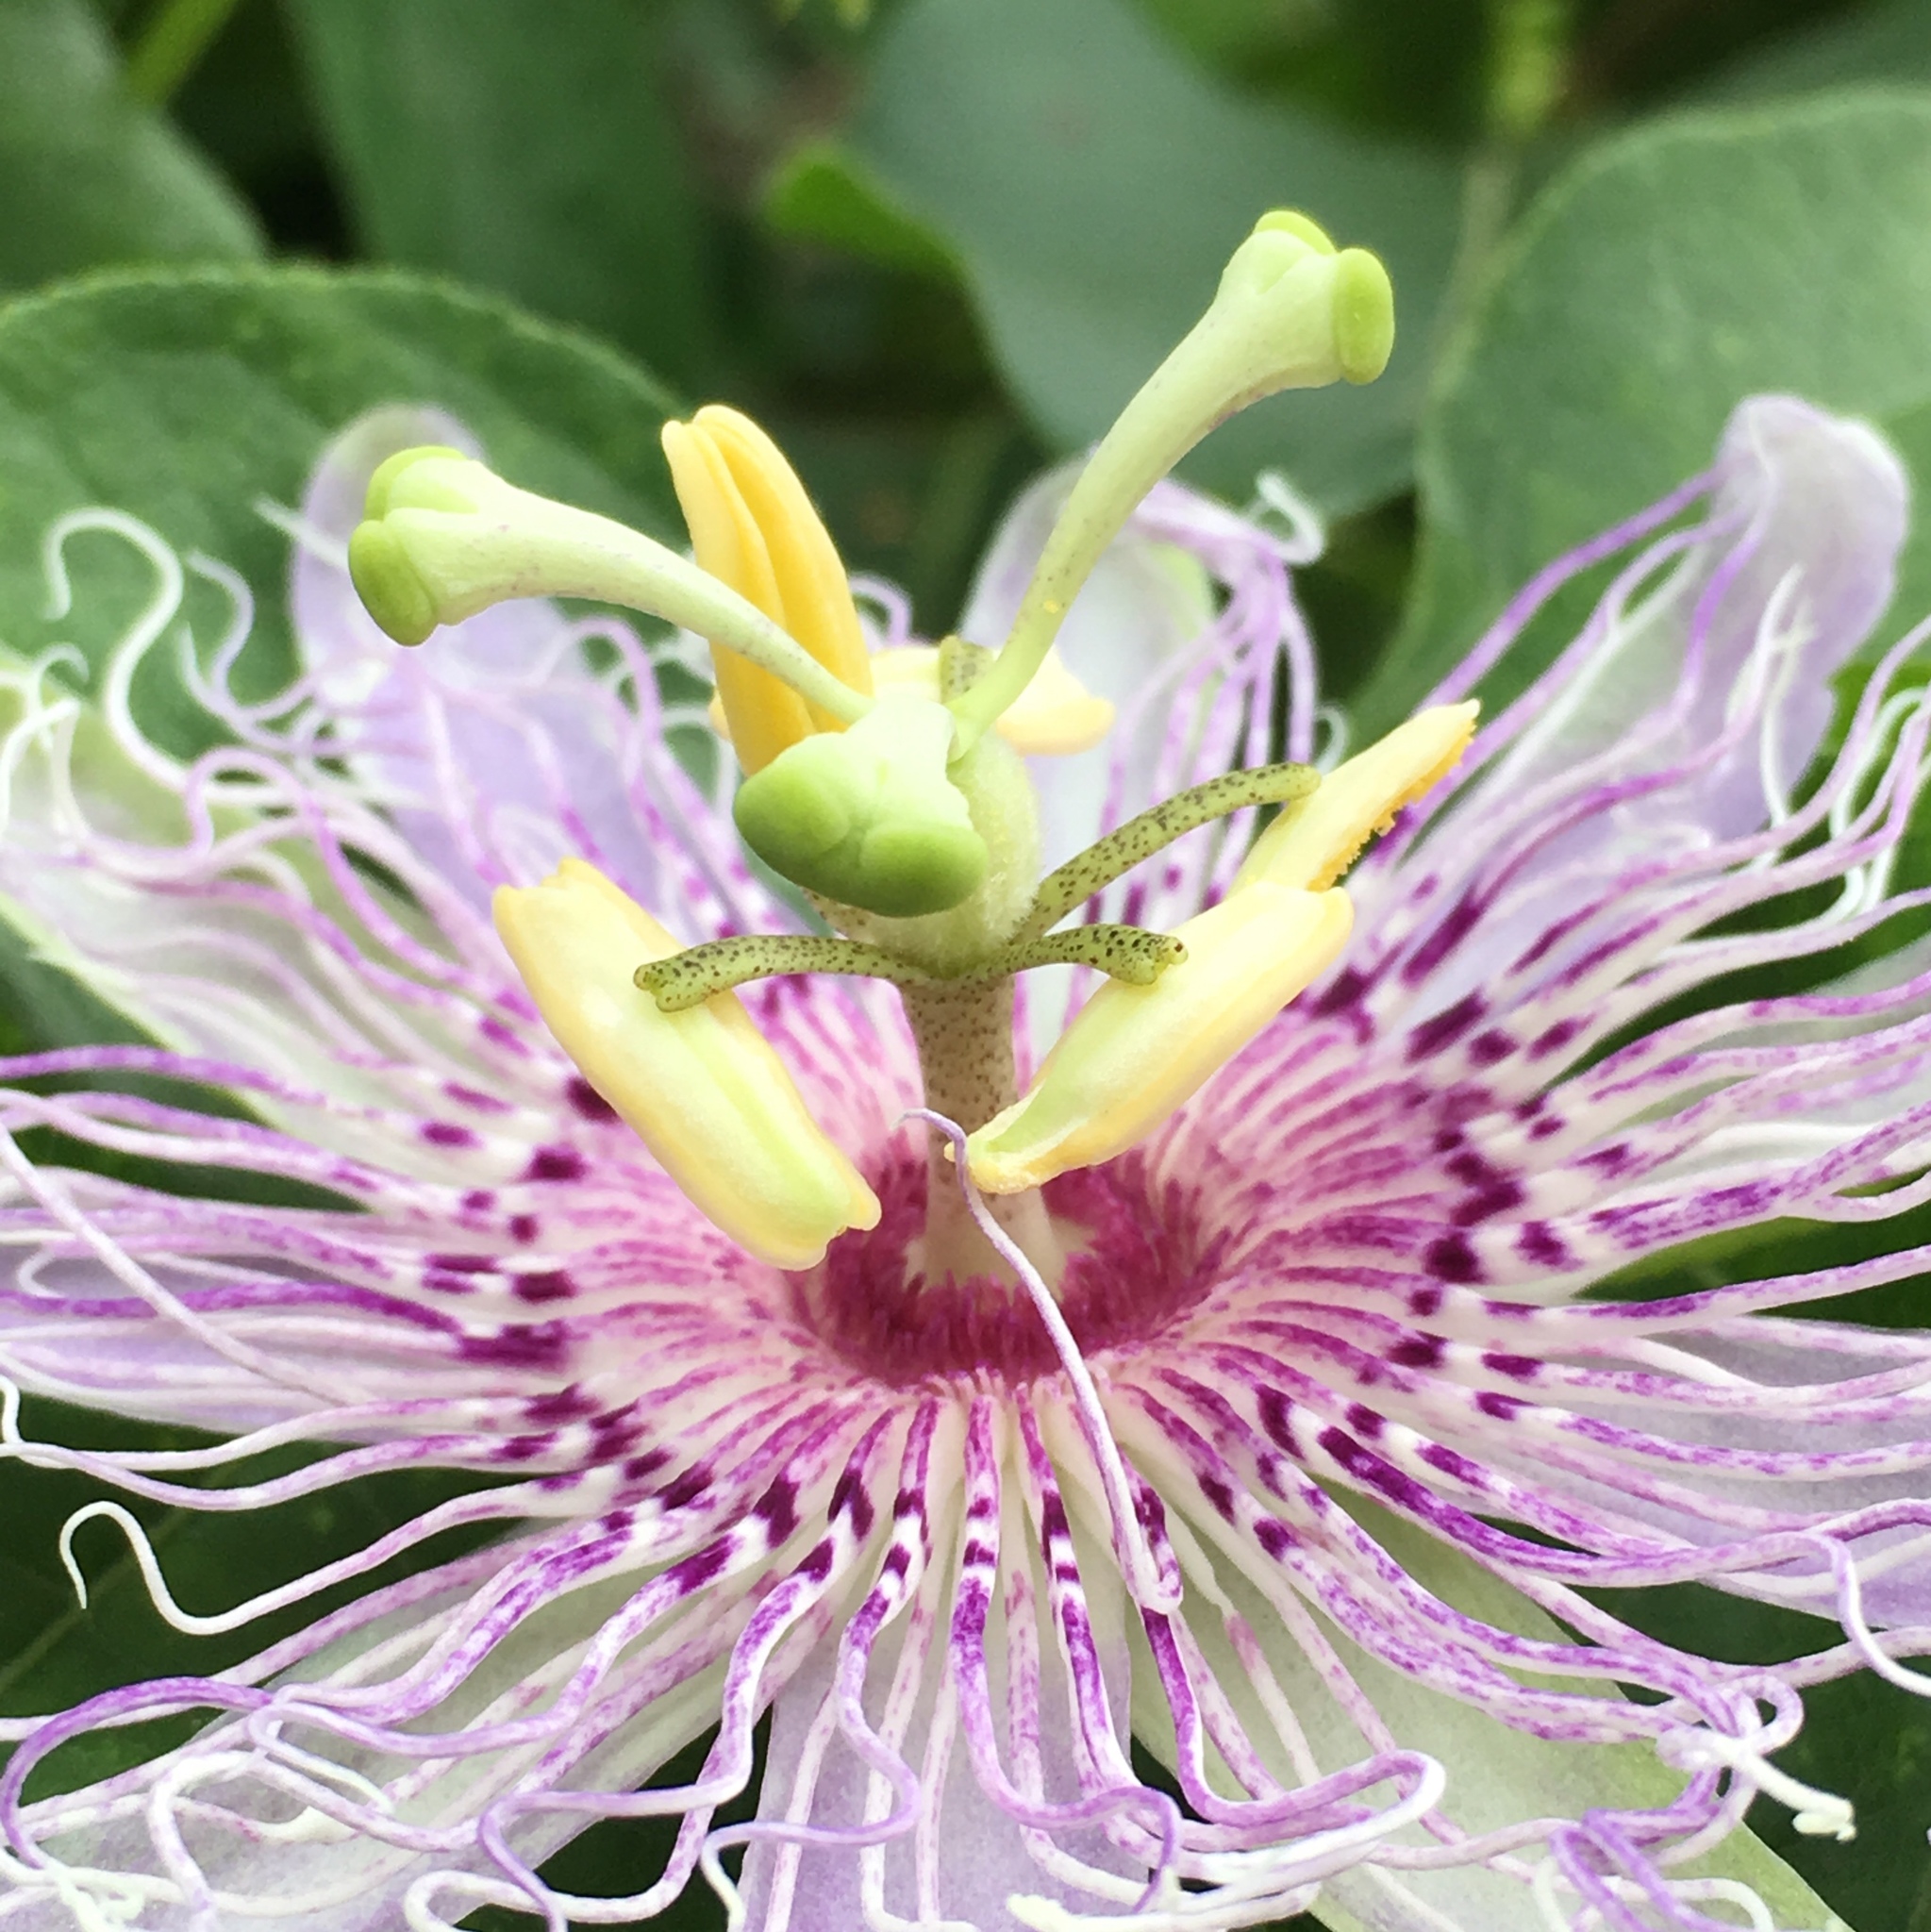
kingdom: Plantae
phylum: Tracheophyta
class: Magnoliopsida
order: Malpighiales
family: Passifloraceae
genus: Passiflora
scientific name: Passiflora incarnata
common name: Apricot-vine
